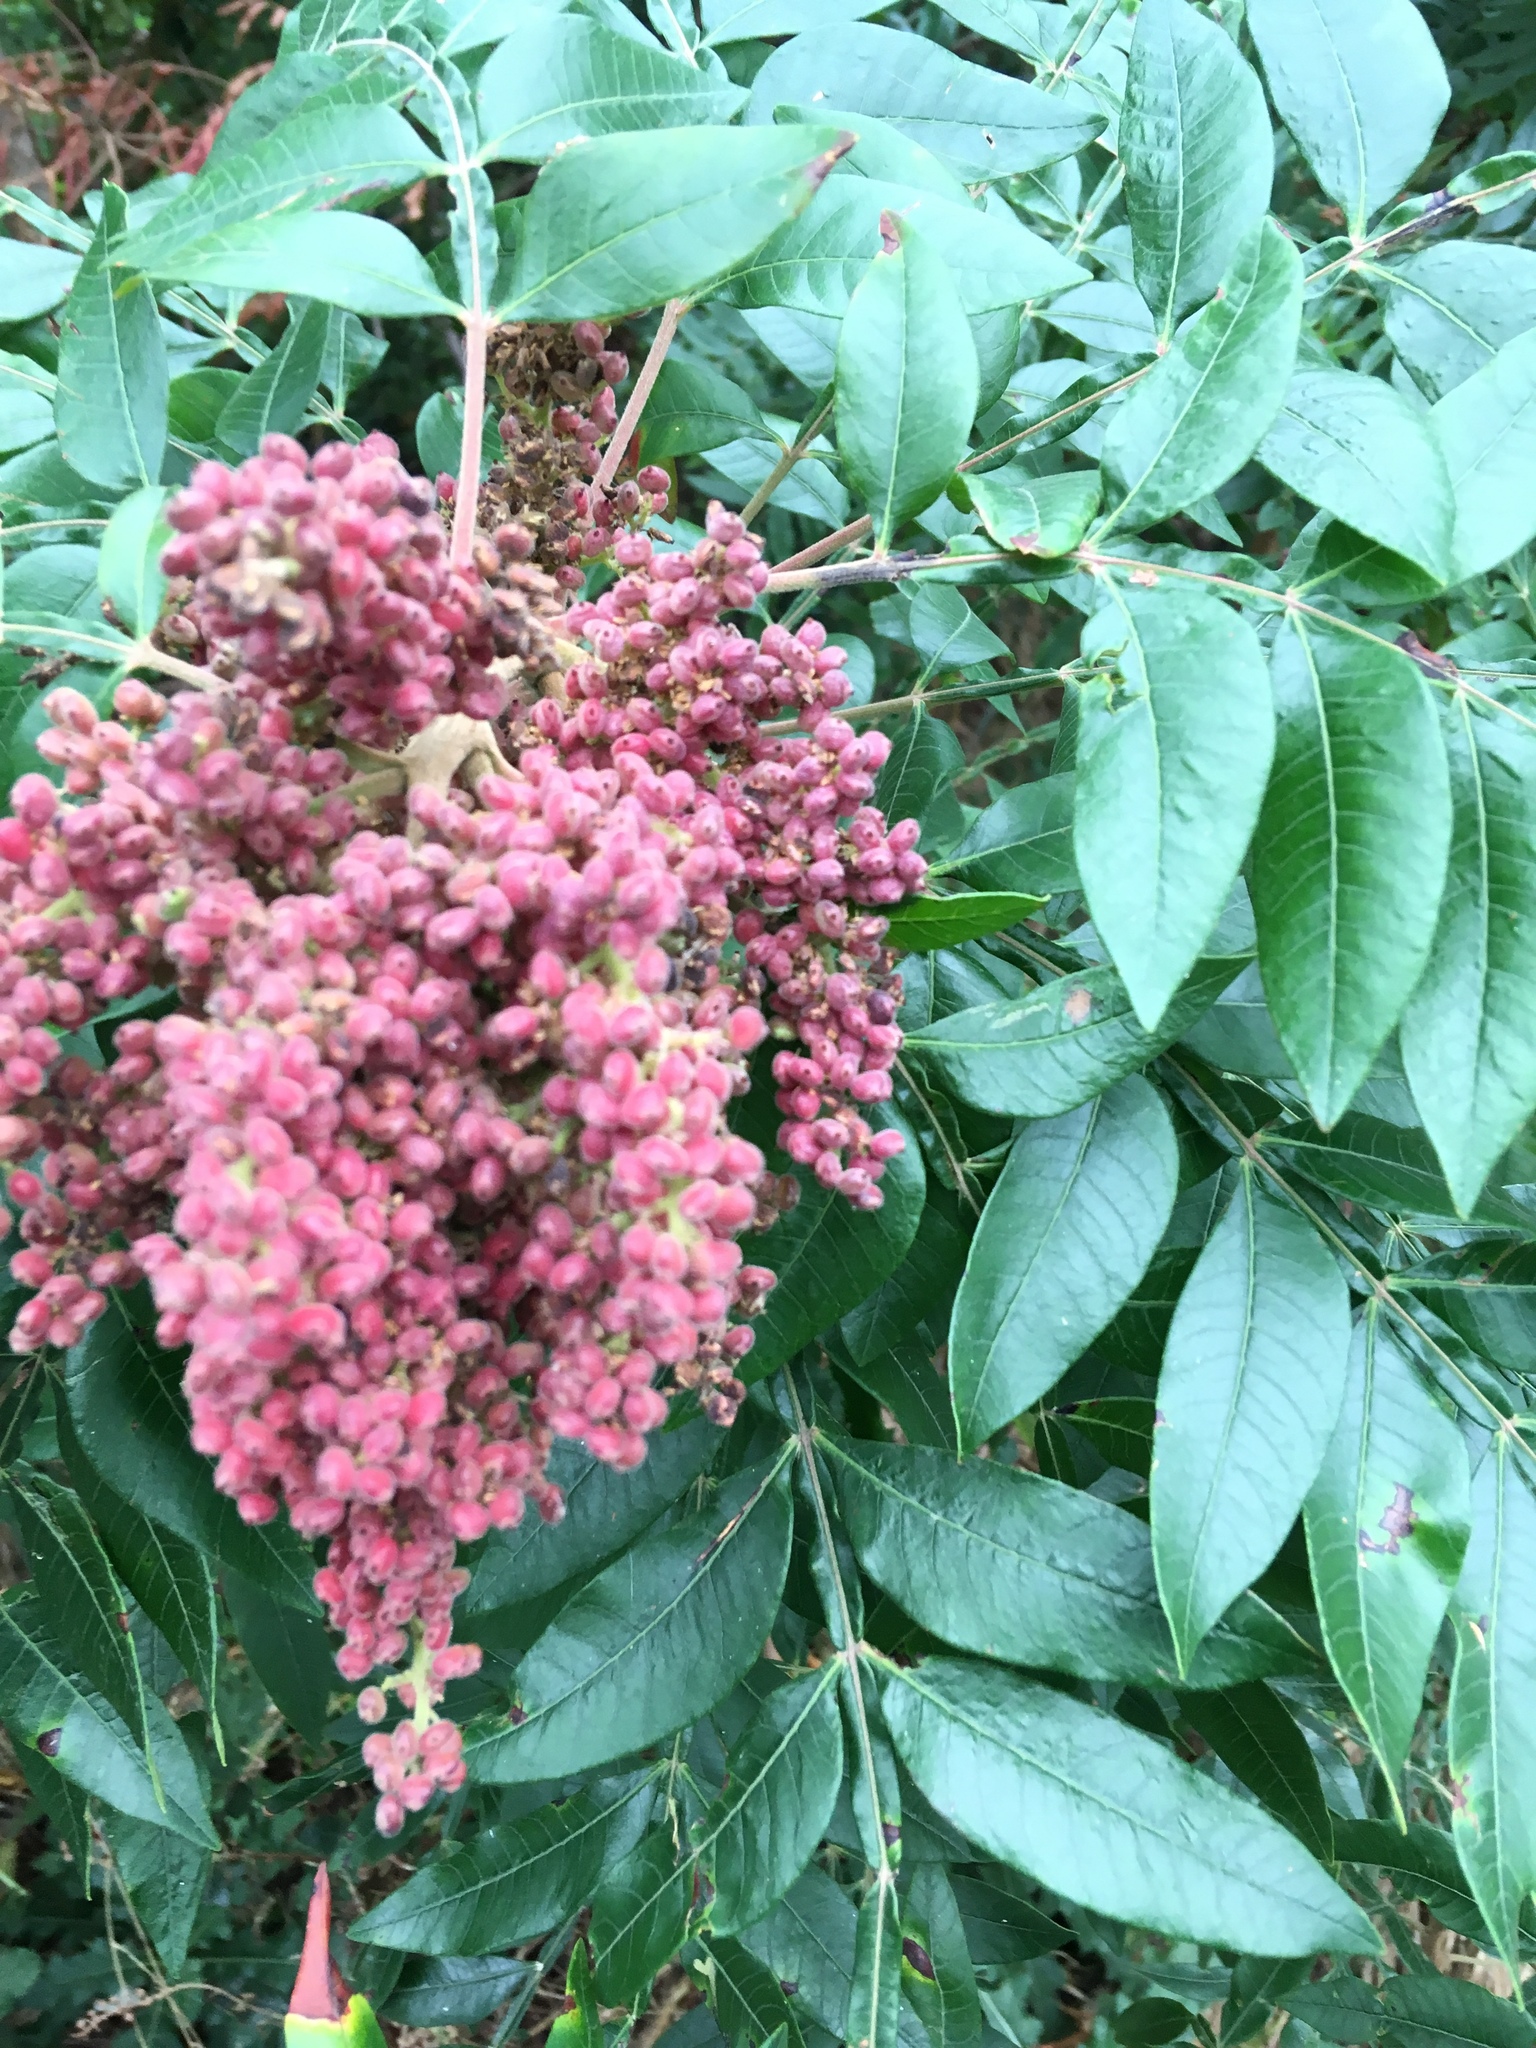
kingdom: Plantae
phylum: Tracheophyta
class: Magnoliopsida
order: Sapindales
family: Anacardiaceae
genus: Rhus
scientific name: Rhus copallina
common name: Shining sumac
